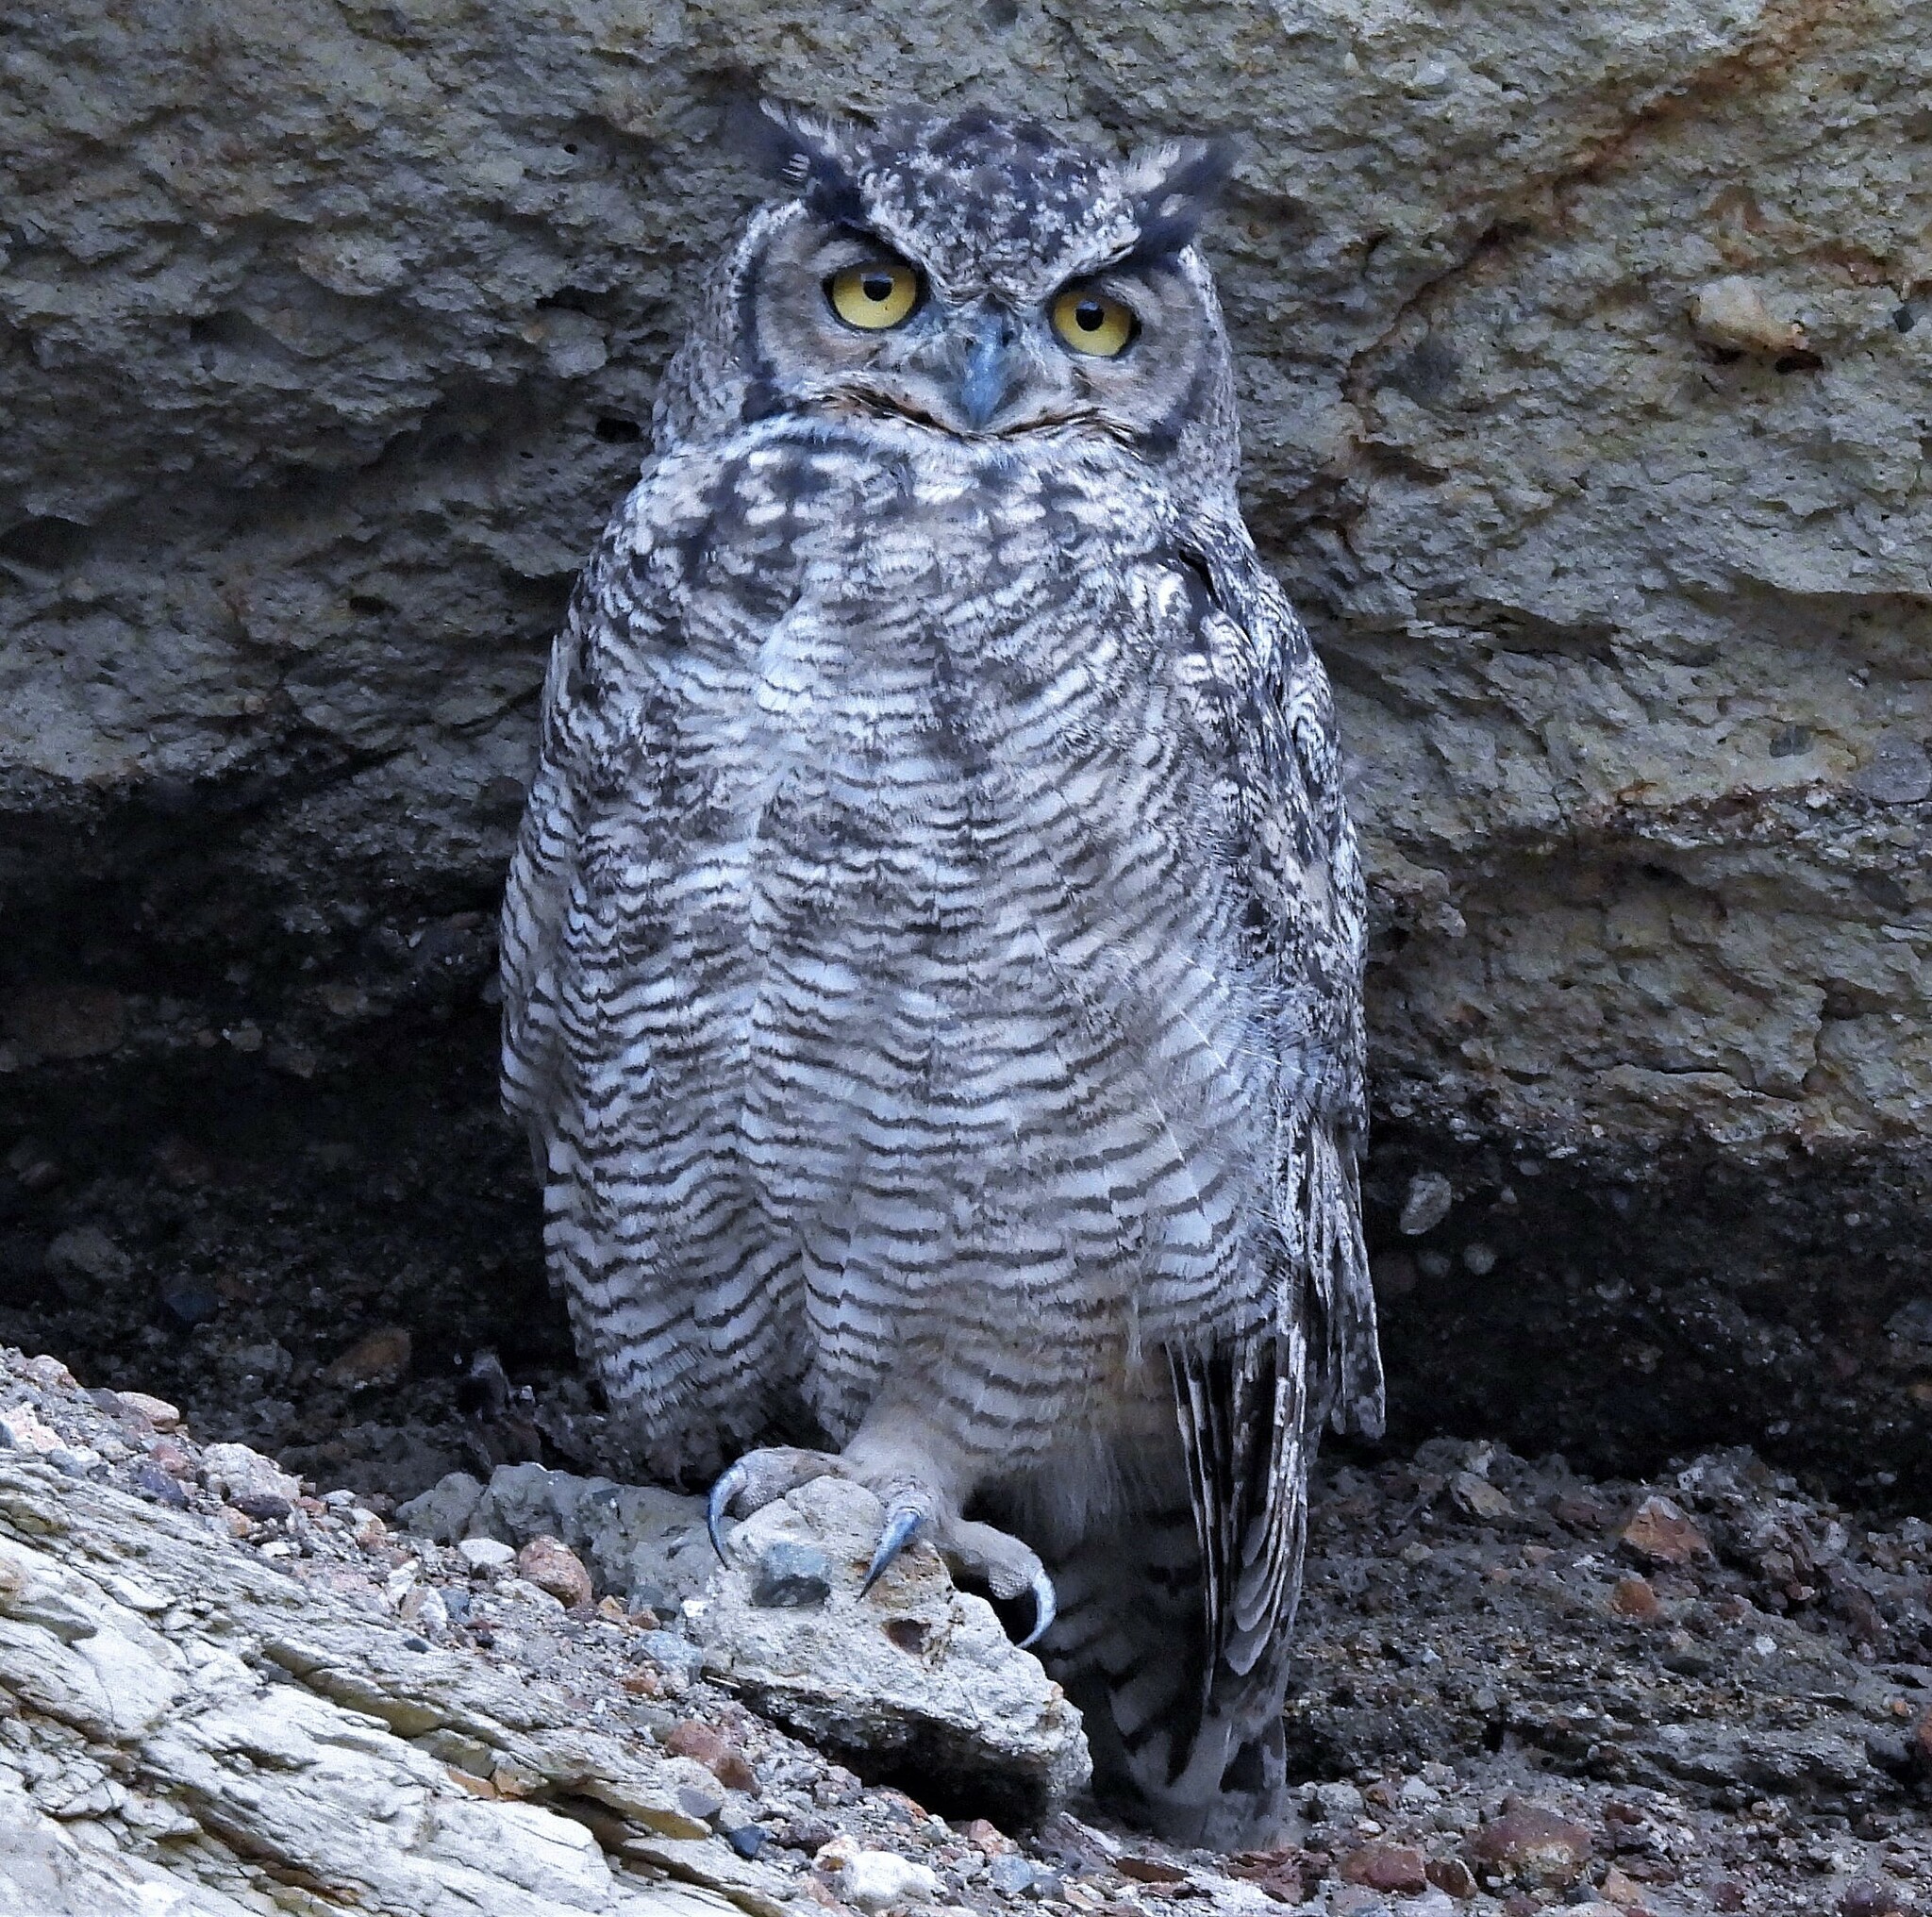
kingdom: Animalia
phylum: Chordata
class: Aves
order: Strigiformes
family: Strigidae
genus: Bubo
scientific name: Bubo magellanicus
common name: Lesser horned owl
